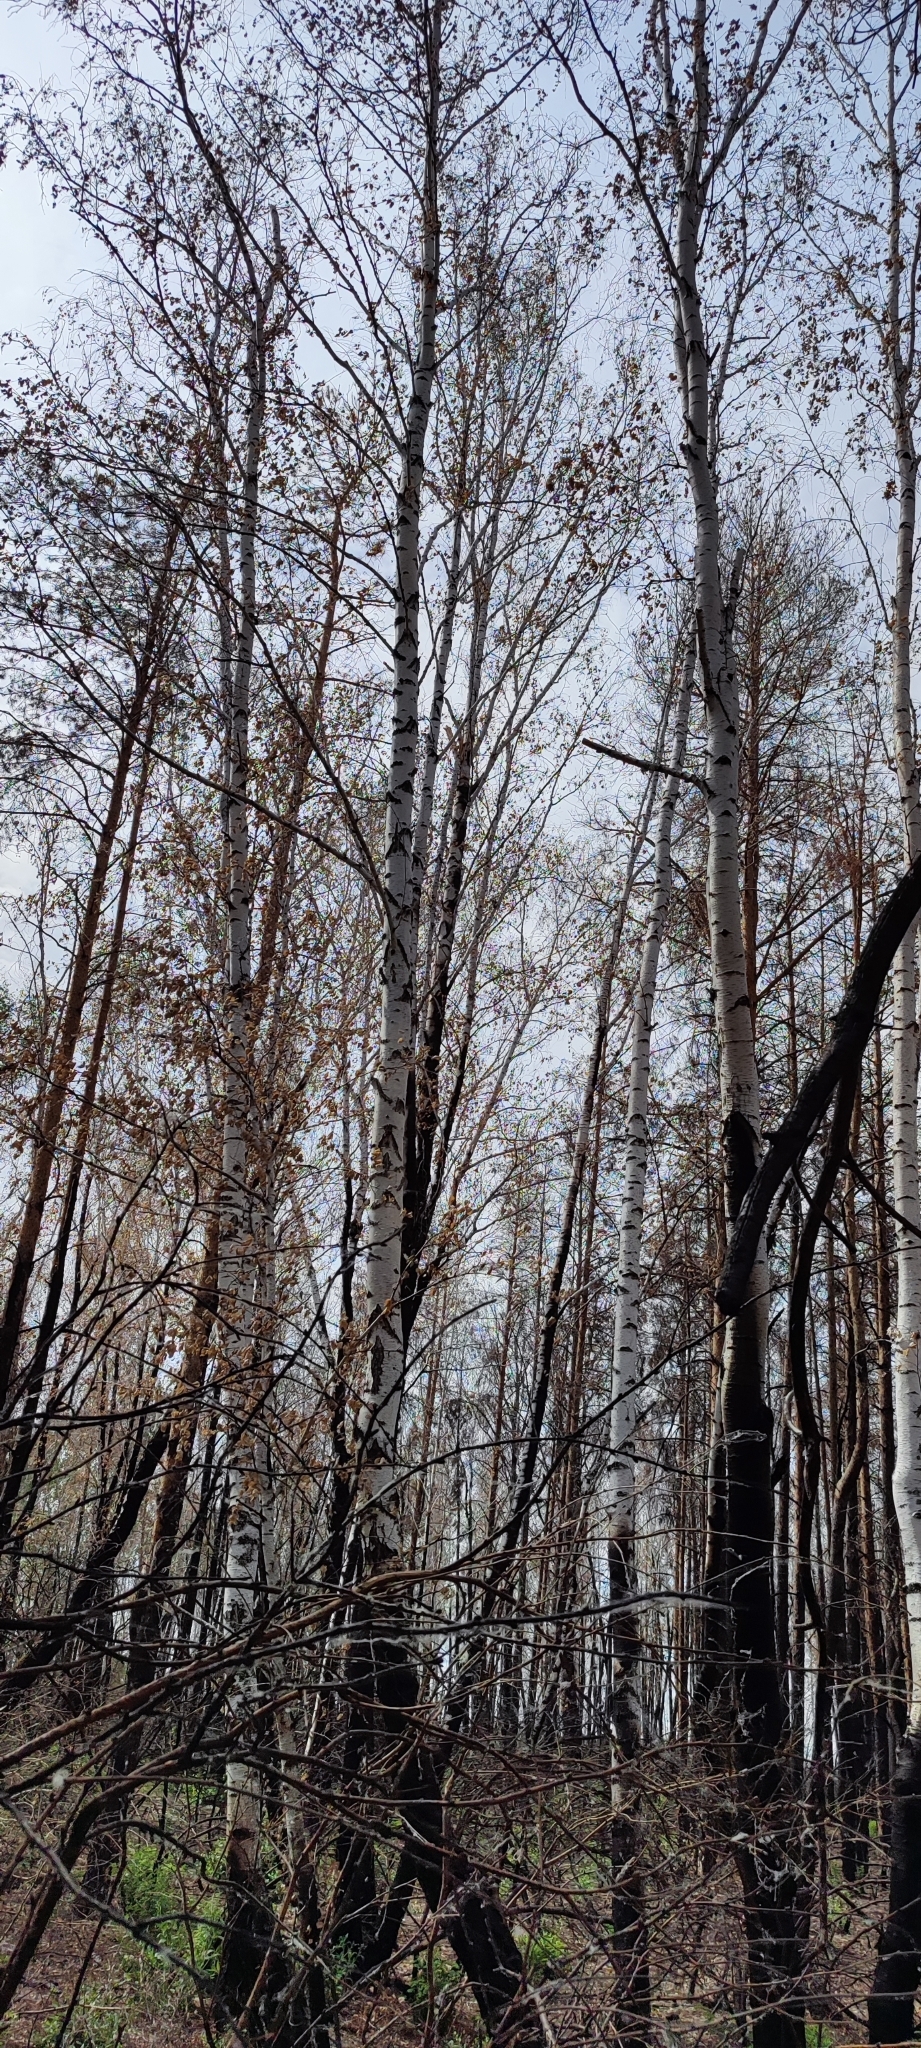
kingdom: Plantae
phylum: Tracheophyta
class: Magnoliopsida
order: Fagales
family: Betulaceae
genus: Betula
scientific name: Betula pendula
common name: Silver birch
